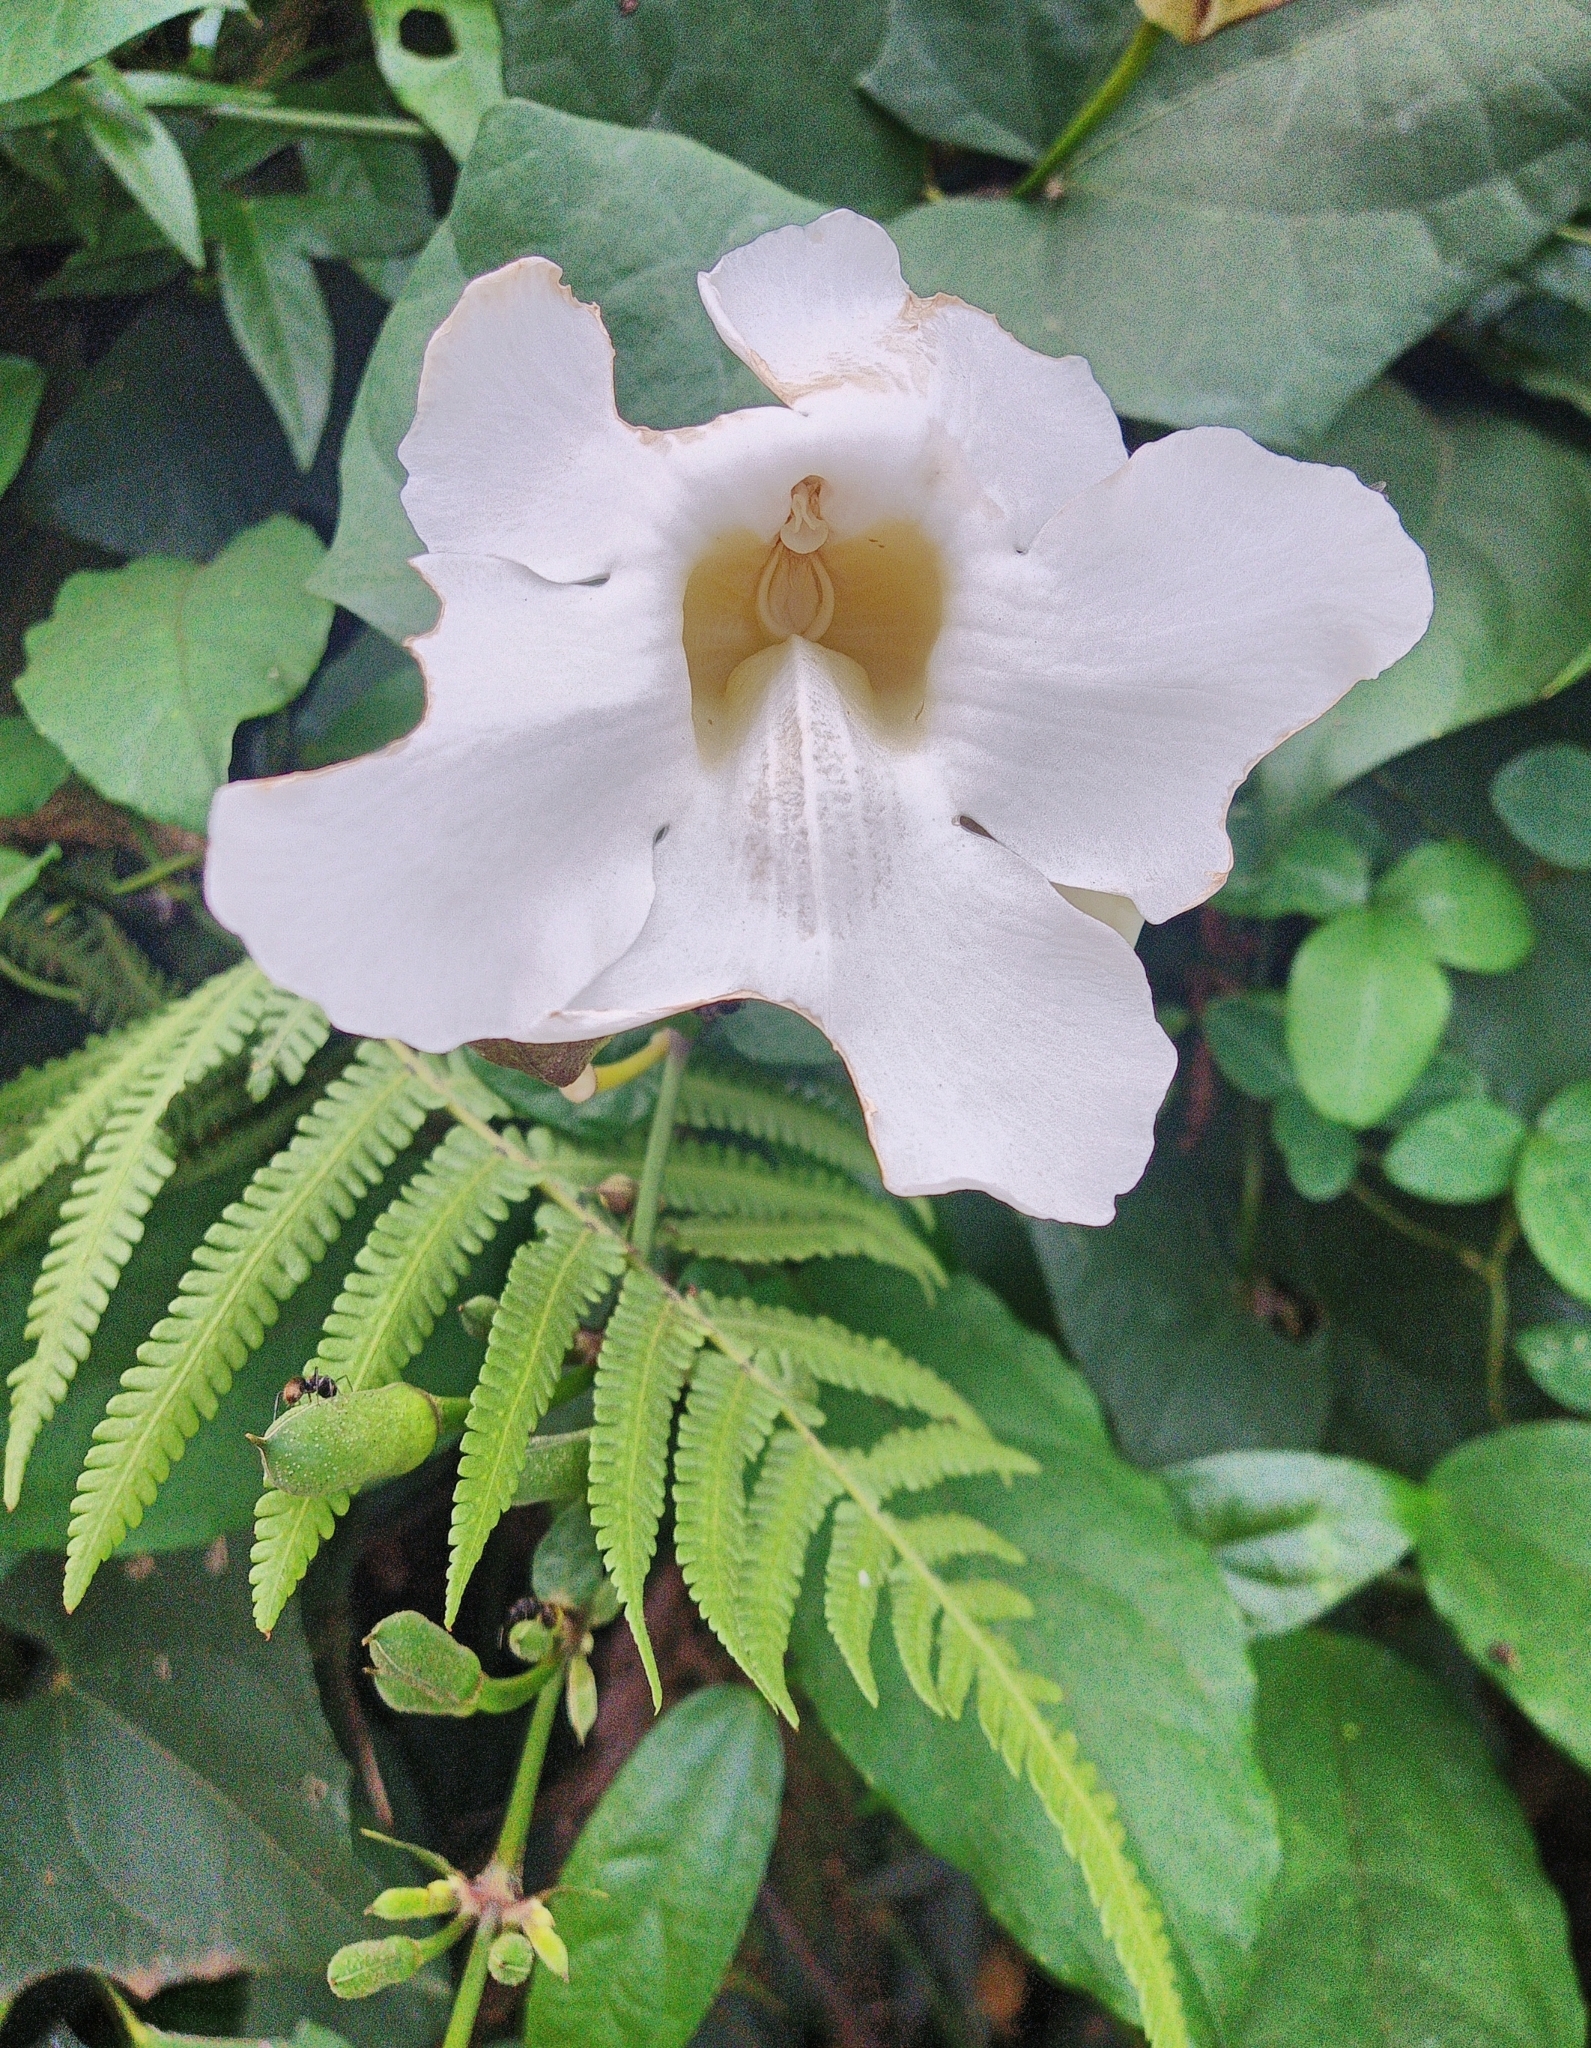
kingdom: Plantae
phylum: Tracheophyta
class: Magnoliopsida
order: Lamiales
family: Acanthaceae
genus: Thunbergia
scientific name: Thunbergia grandiflora
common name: Bengal trumpet
